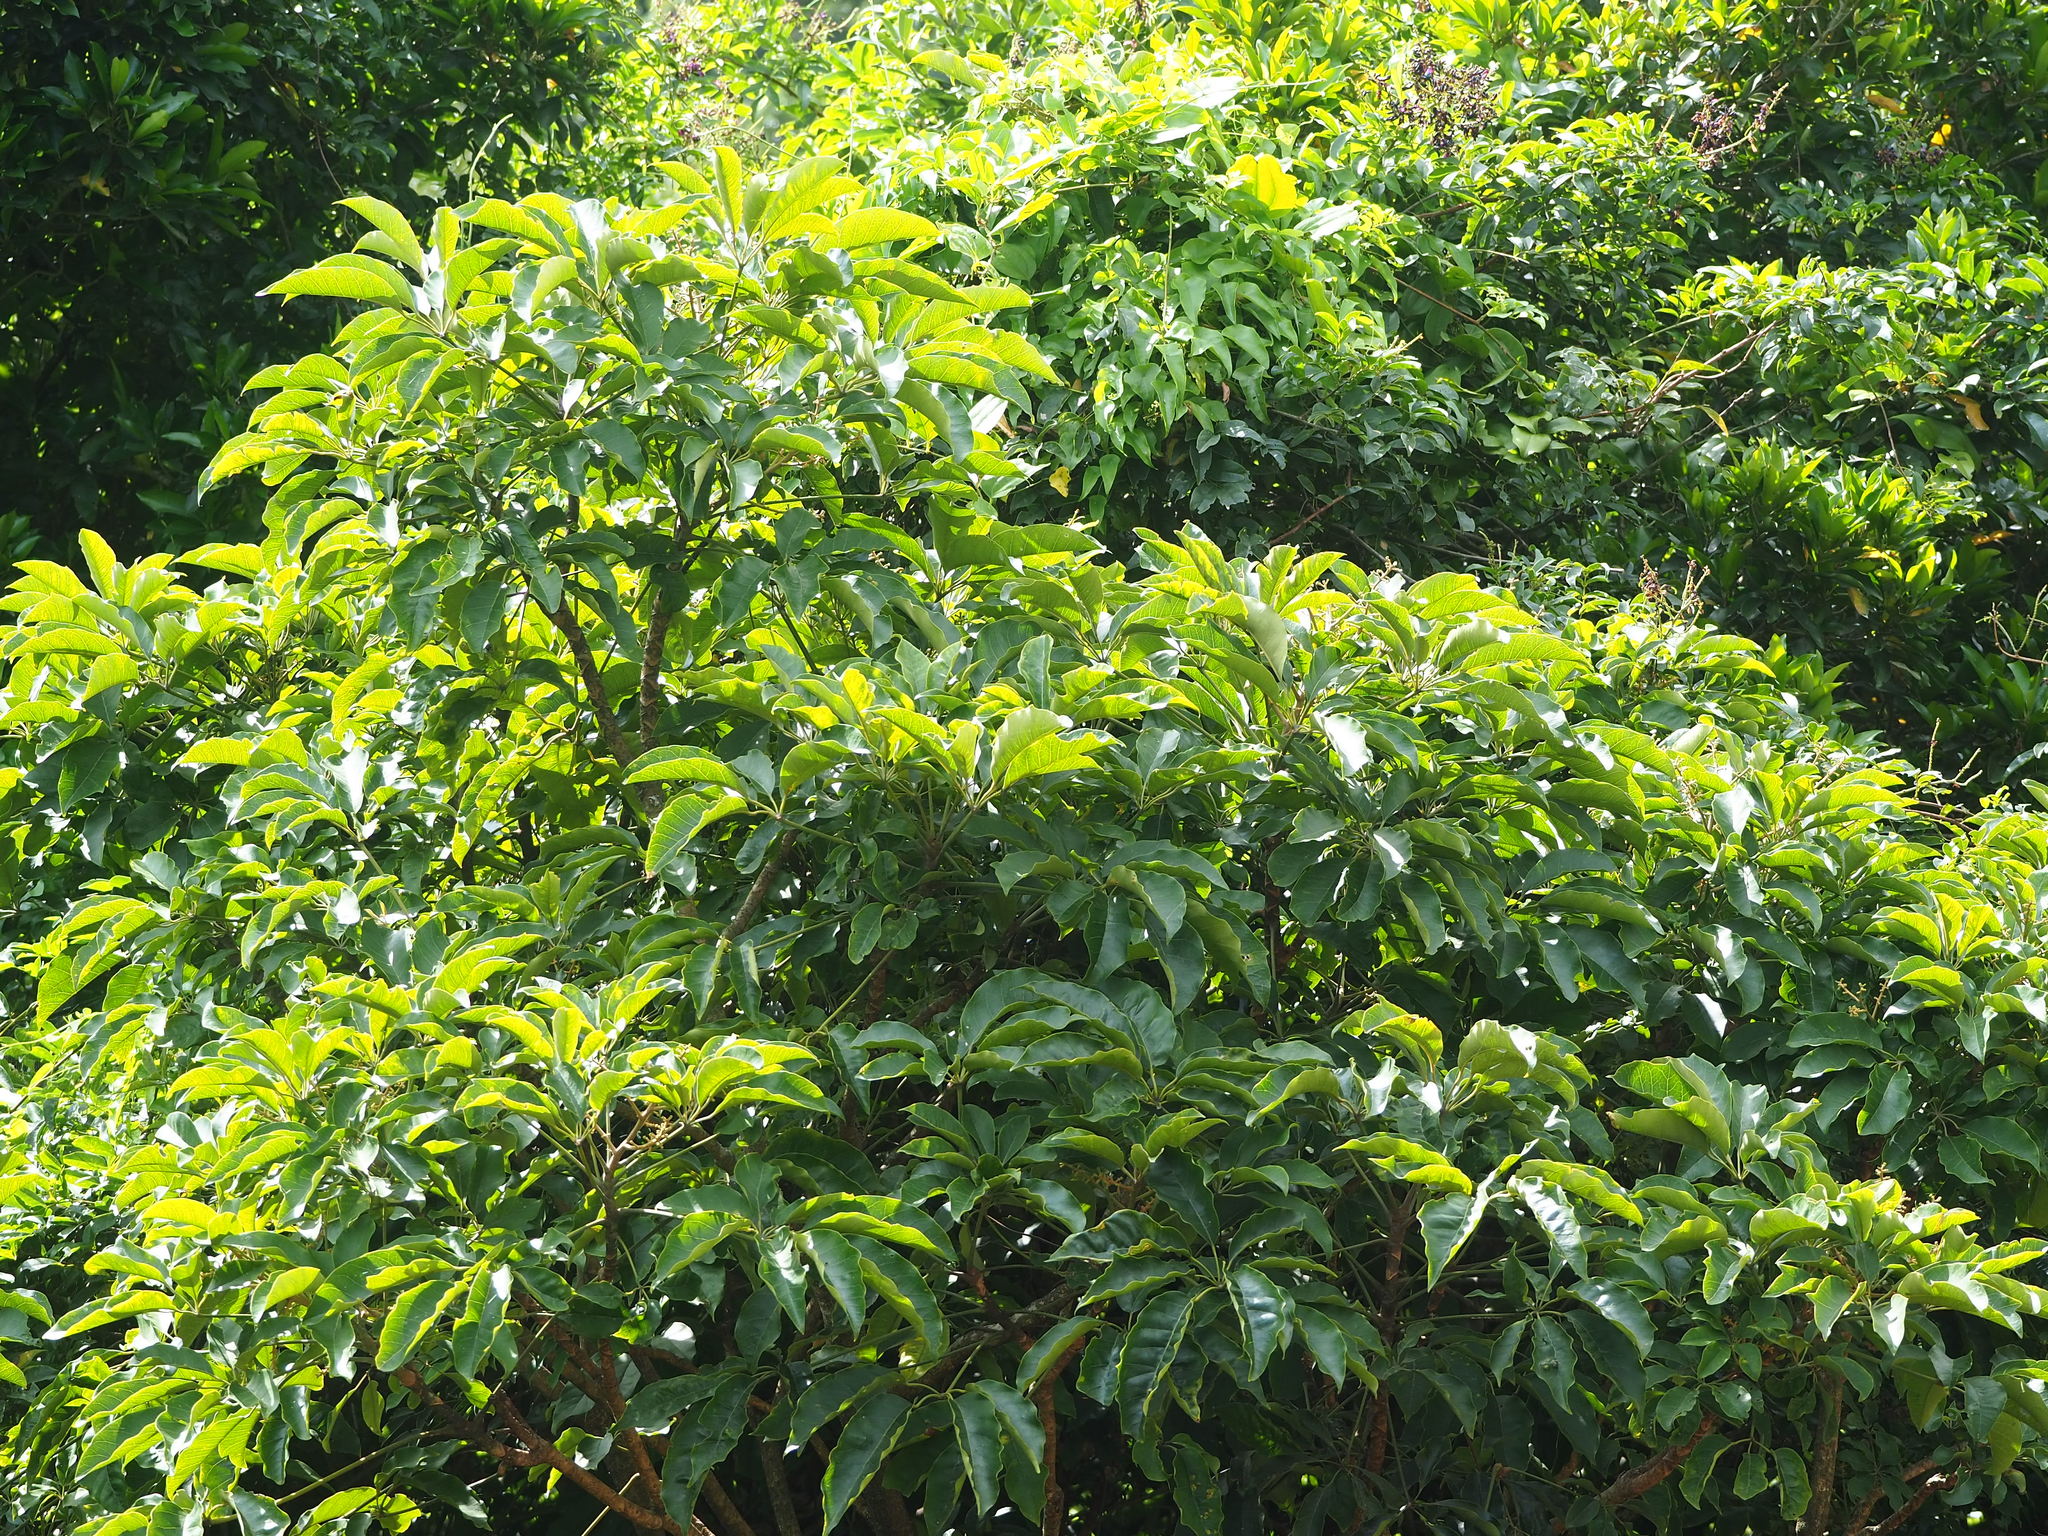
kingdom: Plantae
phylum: Tracheophyta
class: Magnoliopsida
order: Apiales
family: Araliaceae
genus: Heptapleurum
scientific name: Heptapleurum heptaphyllum
